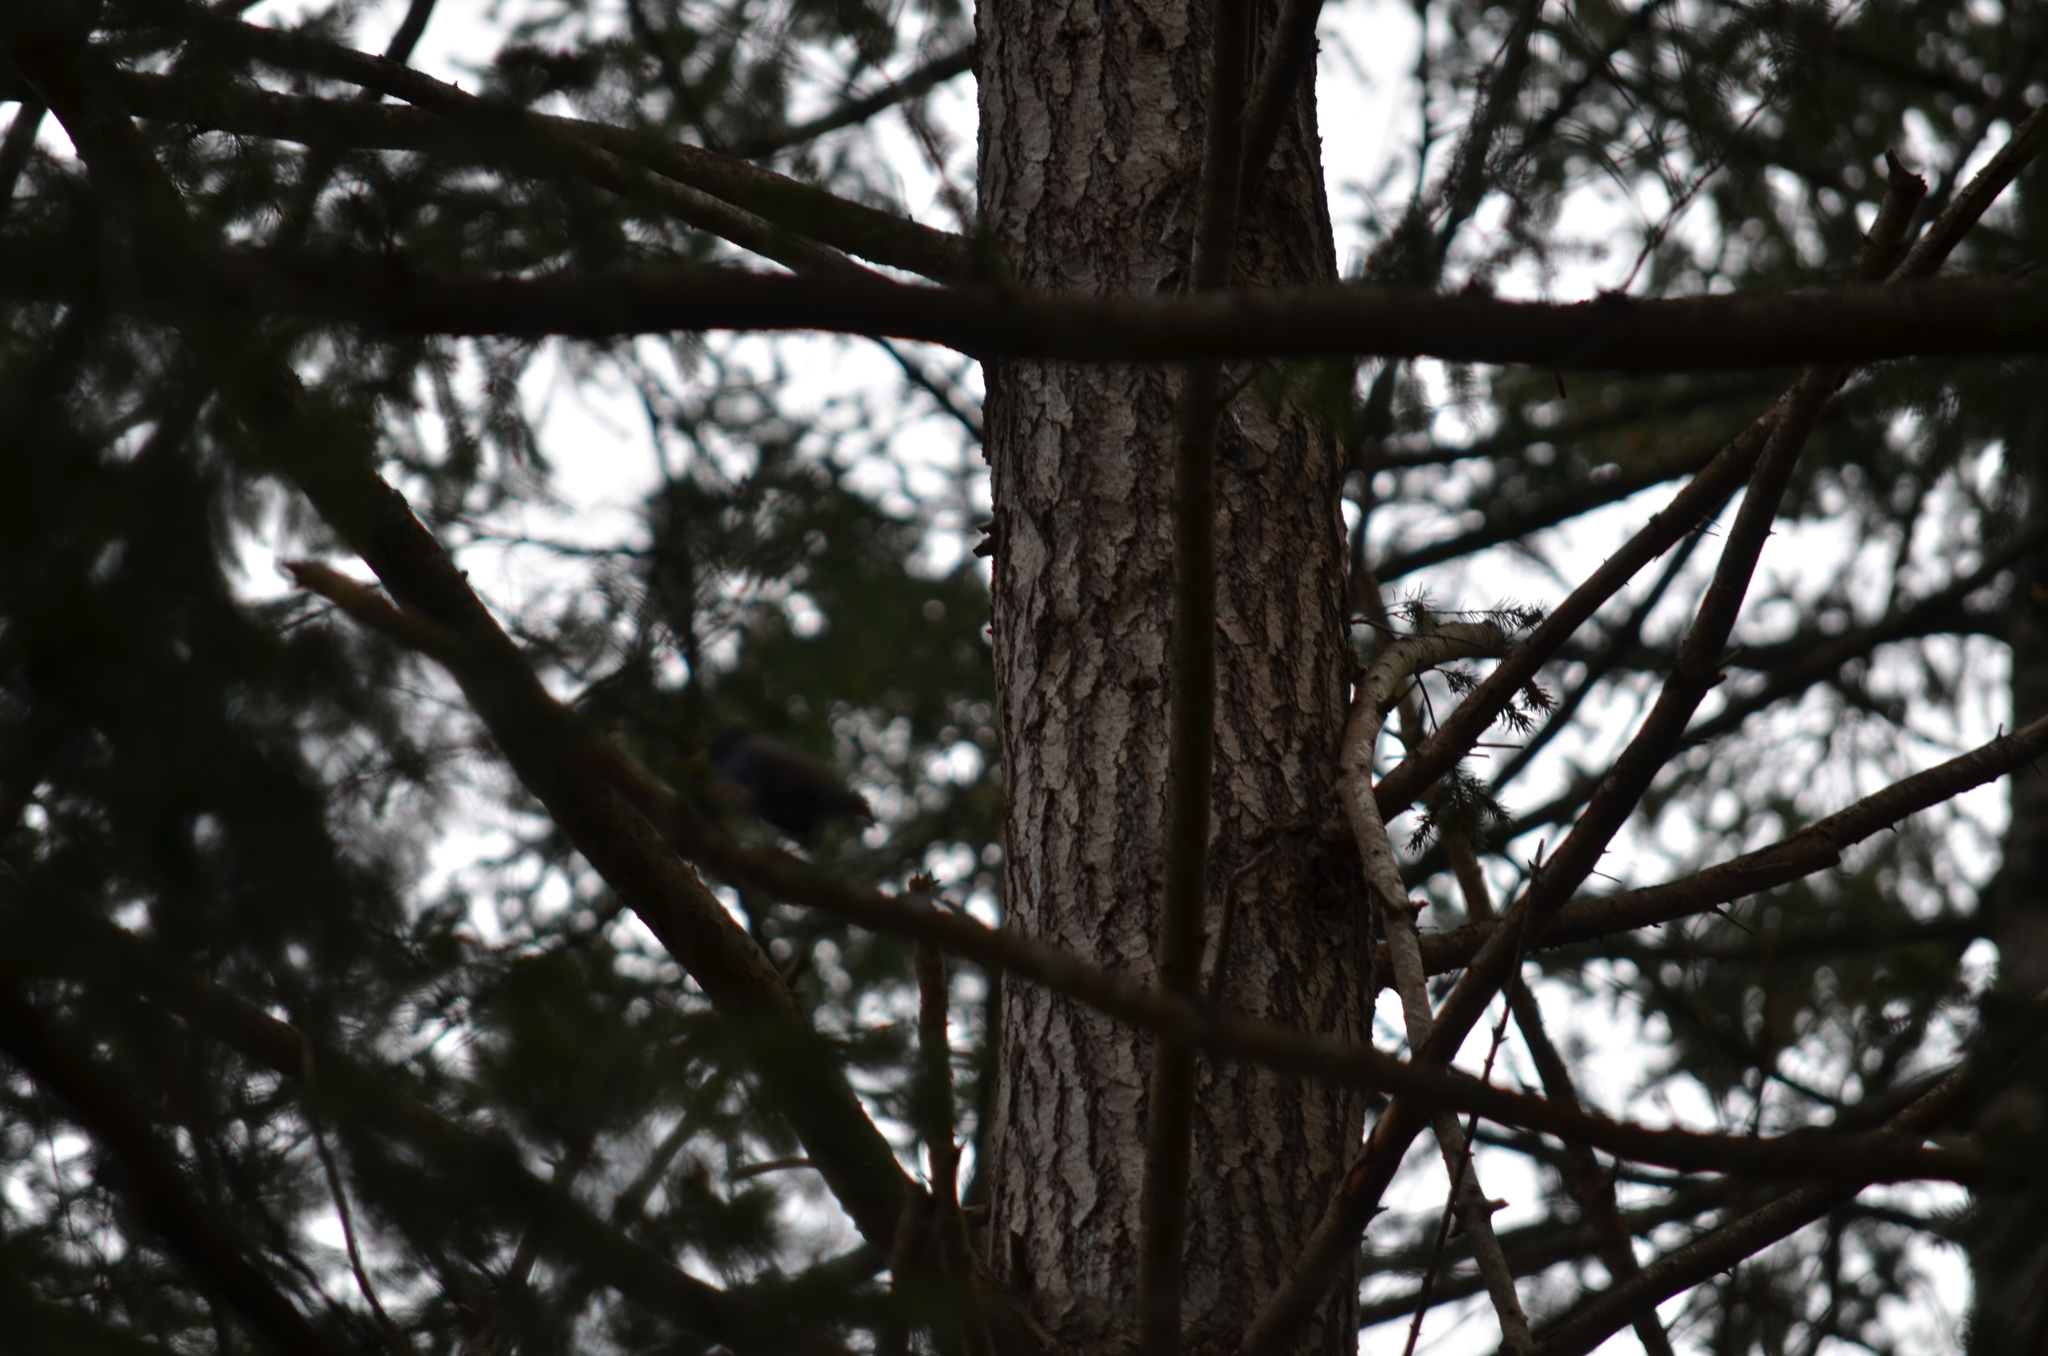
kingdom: Plantae
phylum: Tracheophyta
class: Pinopsida
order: Pinales
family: Pinaceae
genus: Pseudotsuga
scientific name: Pseudotsuga menziesii
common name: Douglas fir
